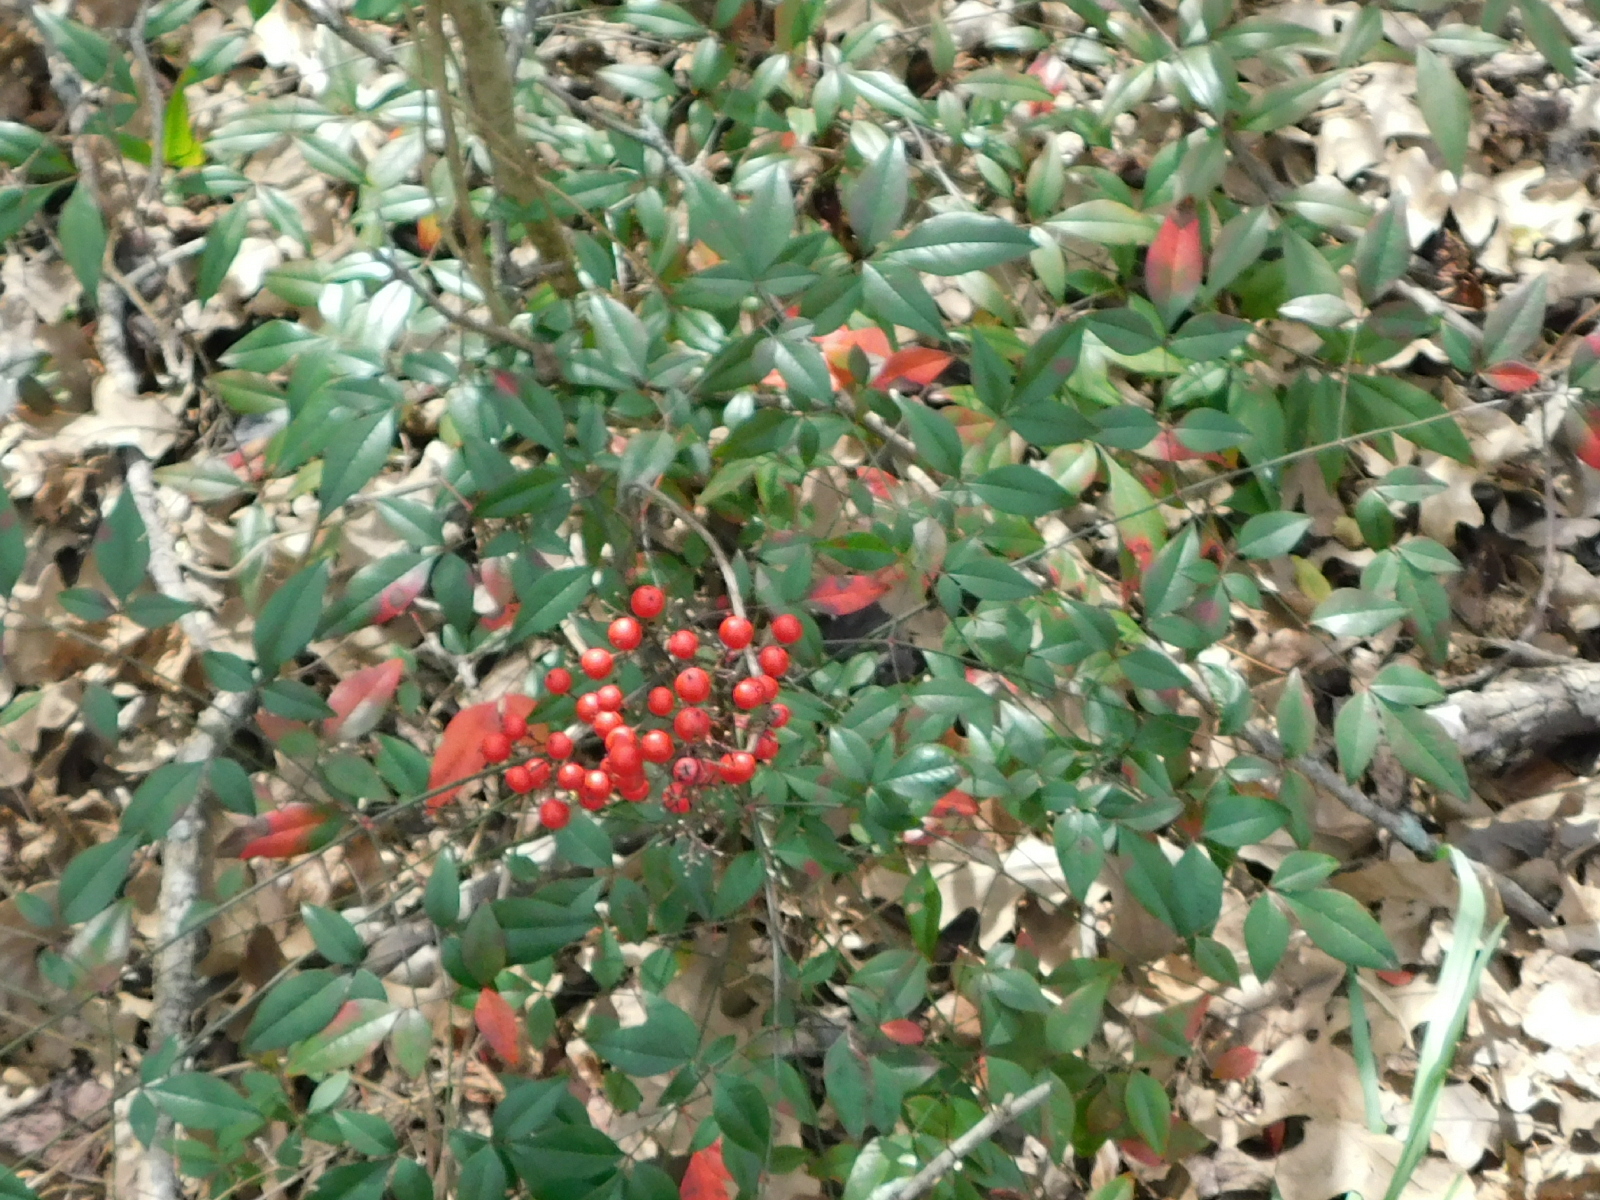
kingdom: Plantae
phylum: Tracheophyta
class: Magnoliopsida
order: Ranunculales
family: Berberidaceae
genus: Nandina
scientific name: Nandina domestica
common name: Sacred bamboo
